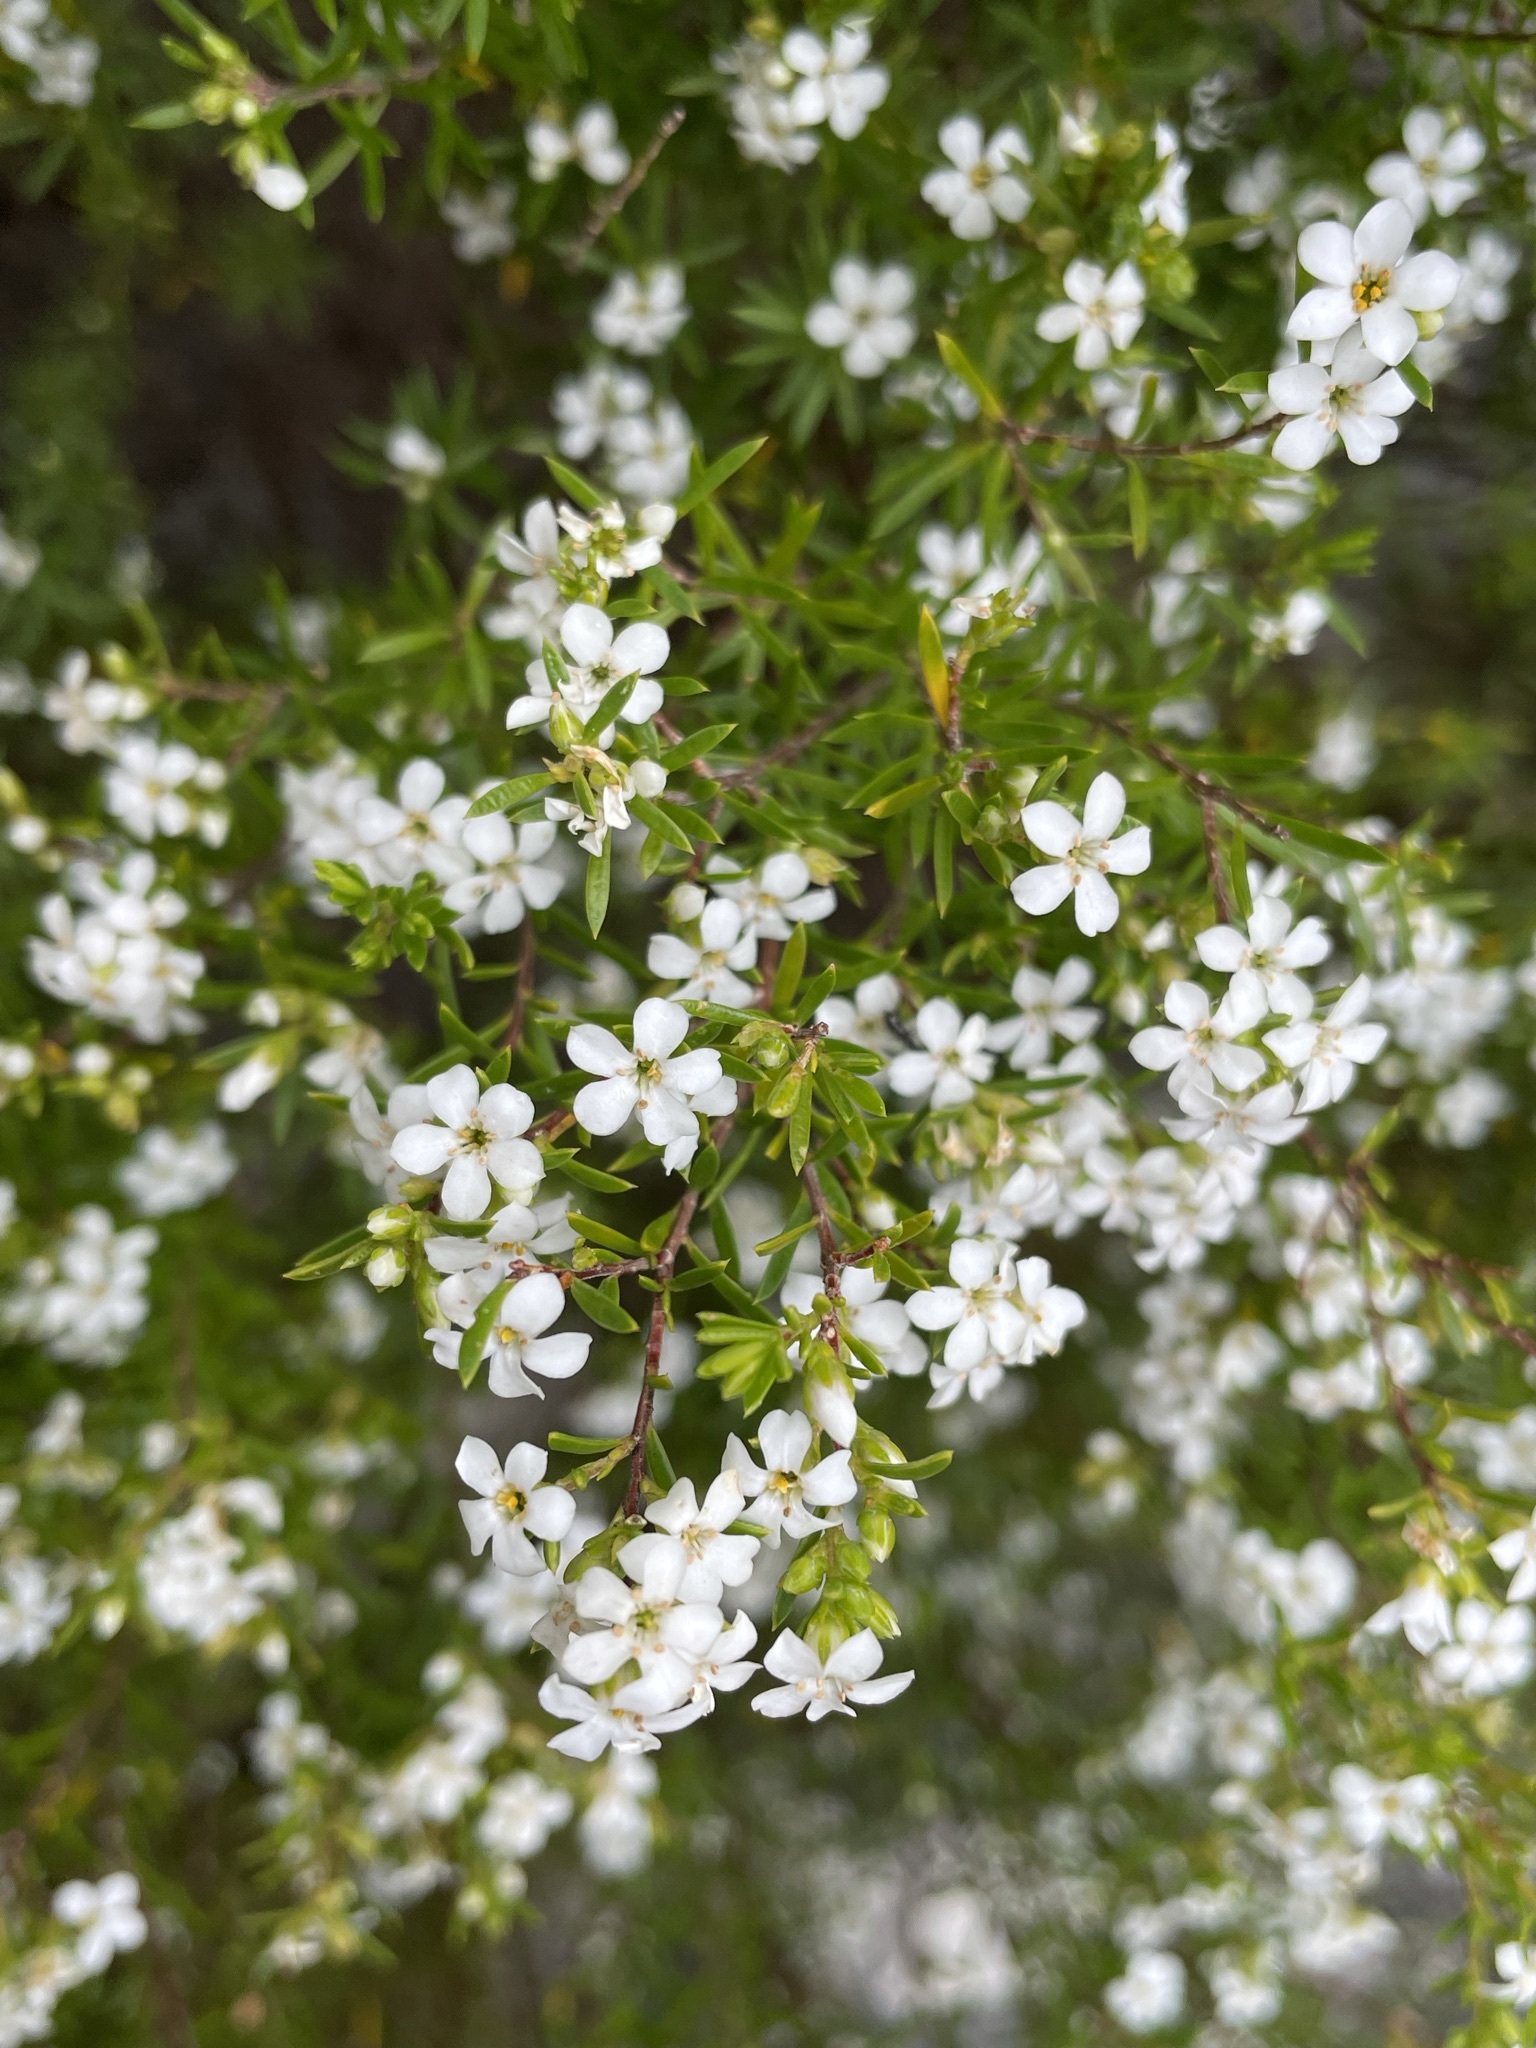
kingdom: Plantae
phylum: Tracheophyta
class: Magnoliopsida
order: Sapindales
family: Rutaceae
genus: Coleonema
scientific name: Coleonema album
